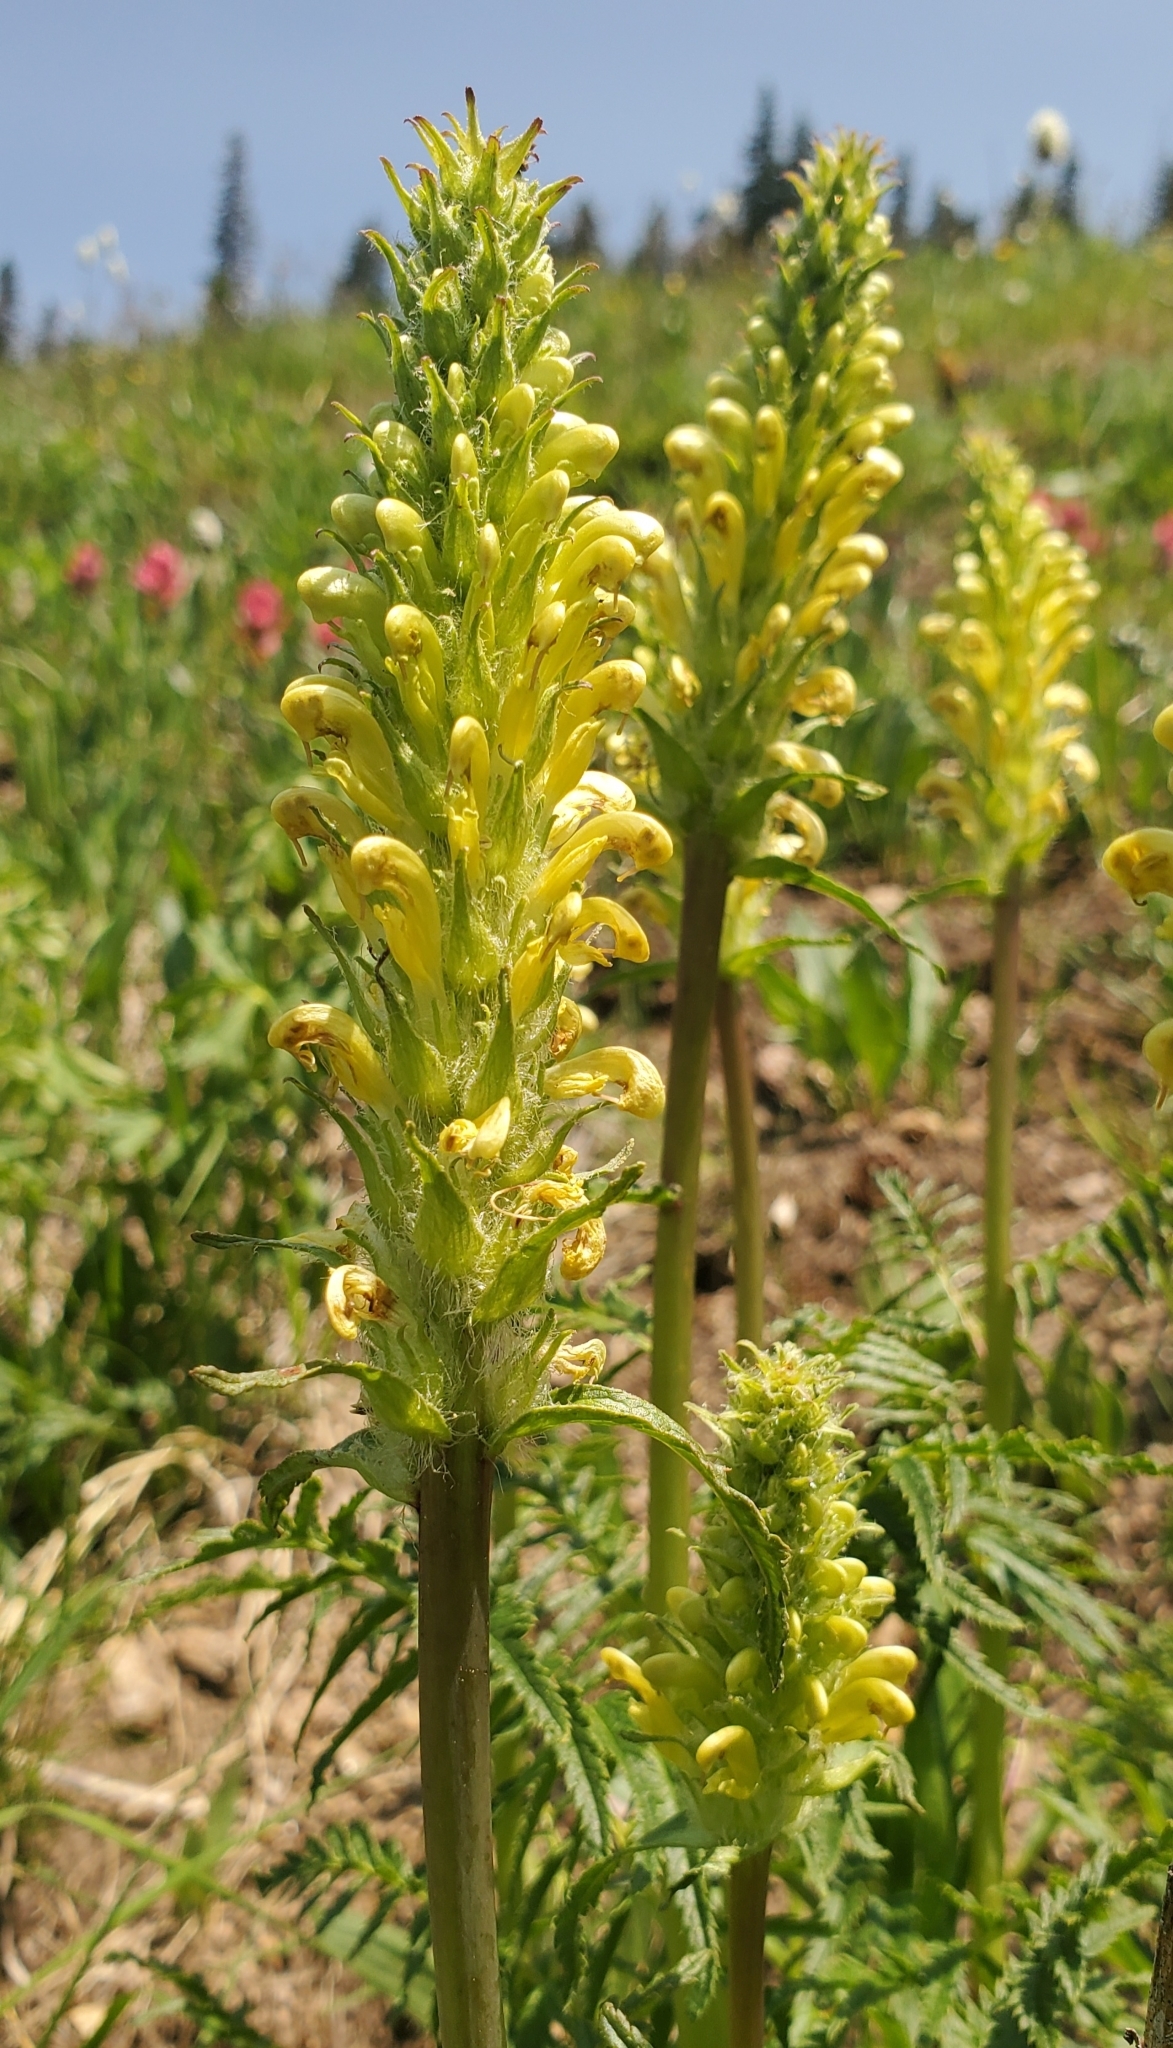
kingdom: Plantae
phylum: Tracheophyta
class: Magnoliopsida
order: Lamiales
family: Orobanchaceae
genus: Pedicularis
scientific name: Pedicularis bracteosa
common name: Bracted lousewort
